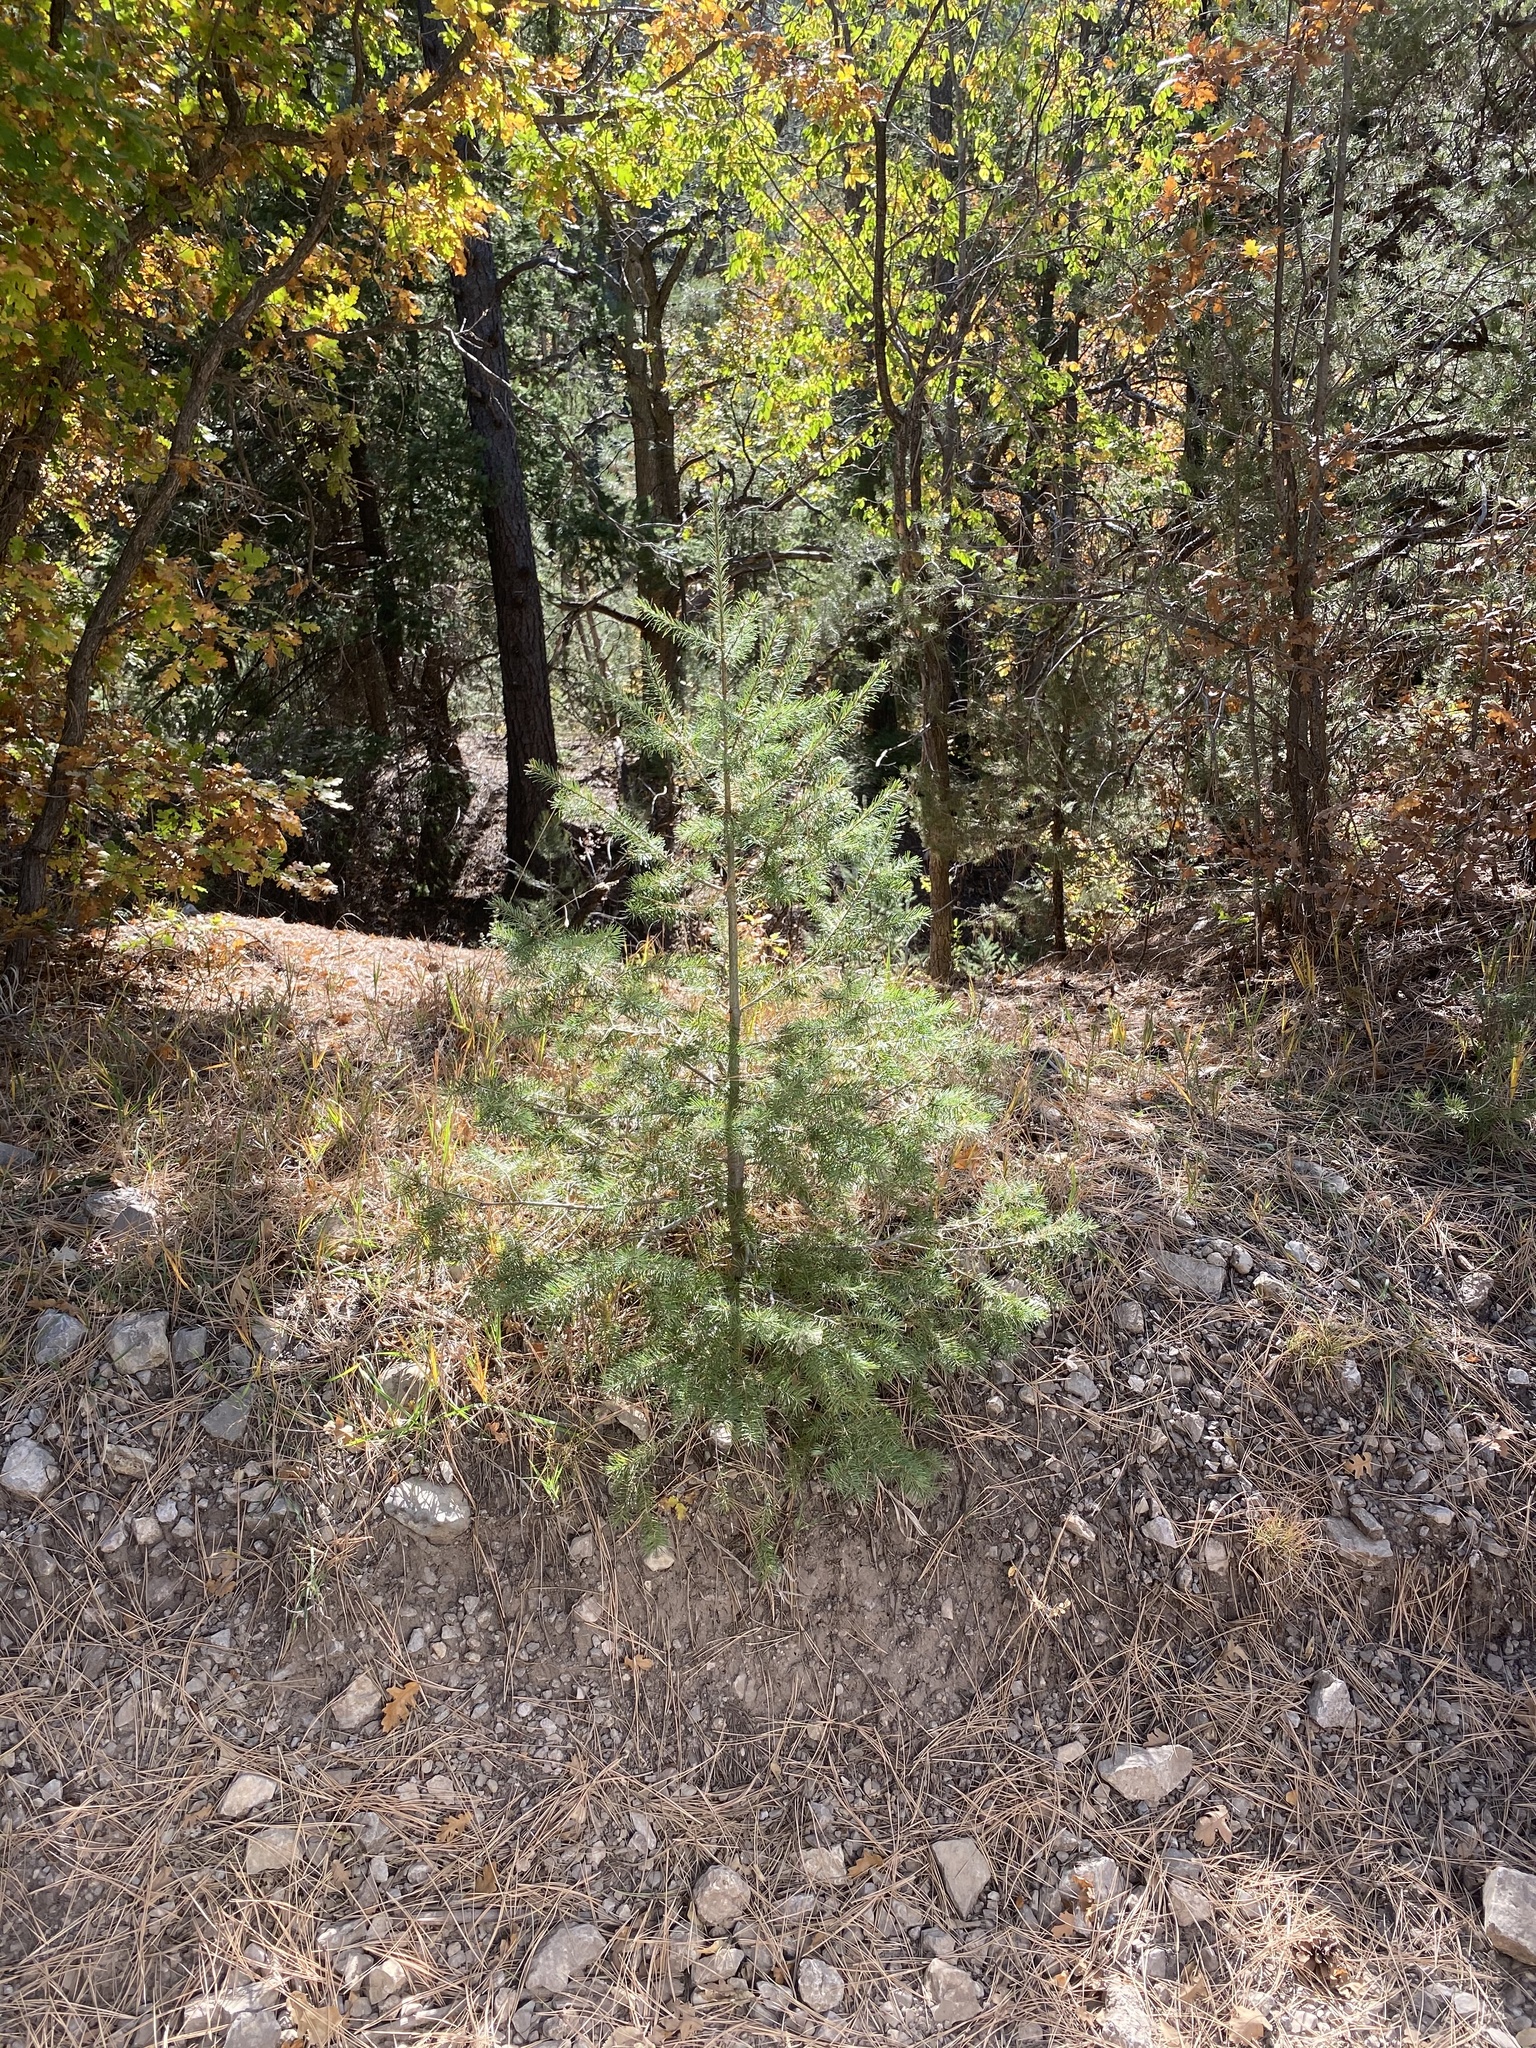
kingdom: Plantae
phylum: Tracheophyta
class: Pinopsida
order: Pinales
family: Pinaceae
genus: Pseudotsuga
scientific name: Pseudotsuga menziesii
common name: Douglas fir
